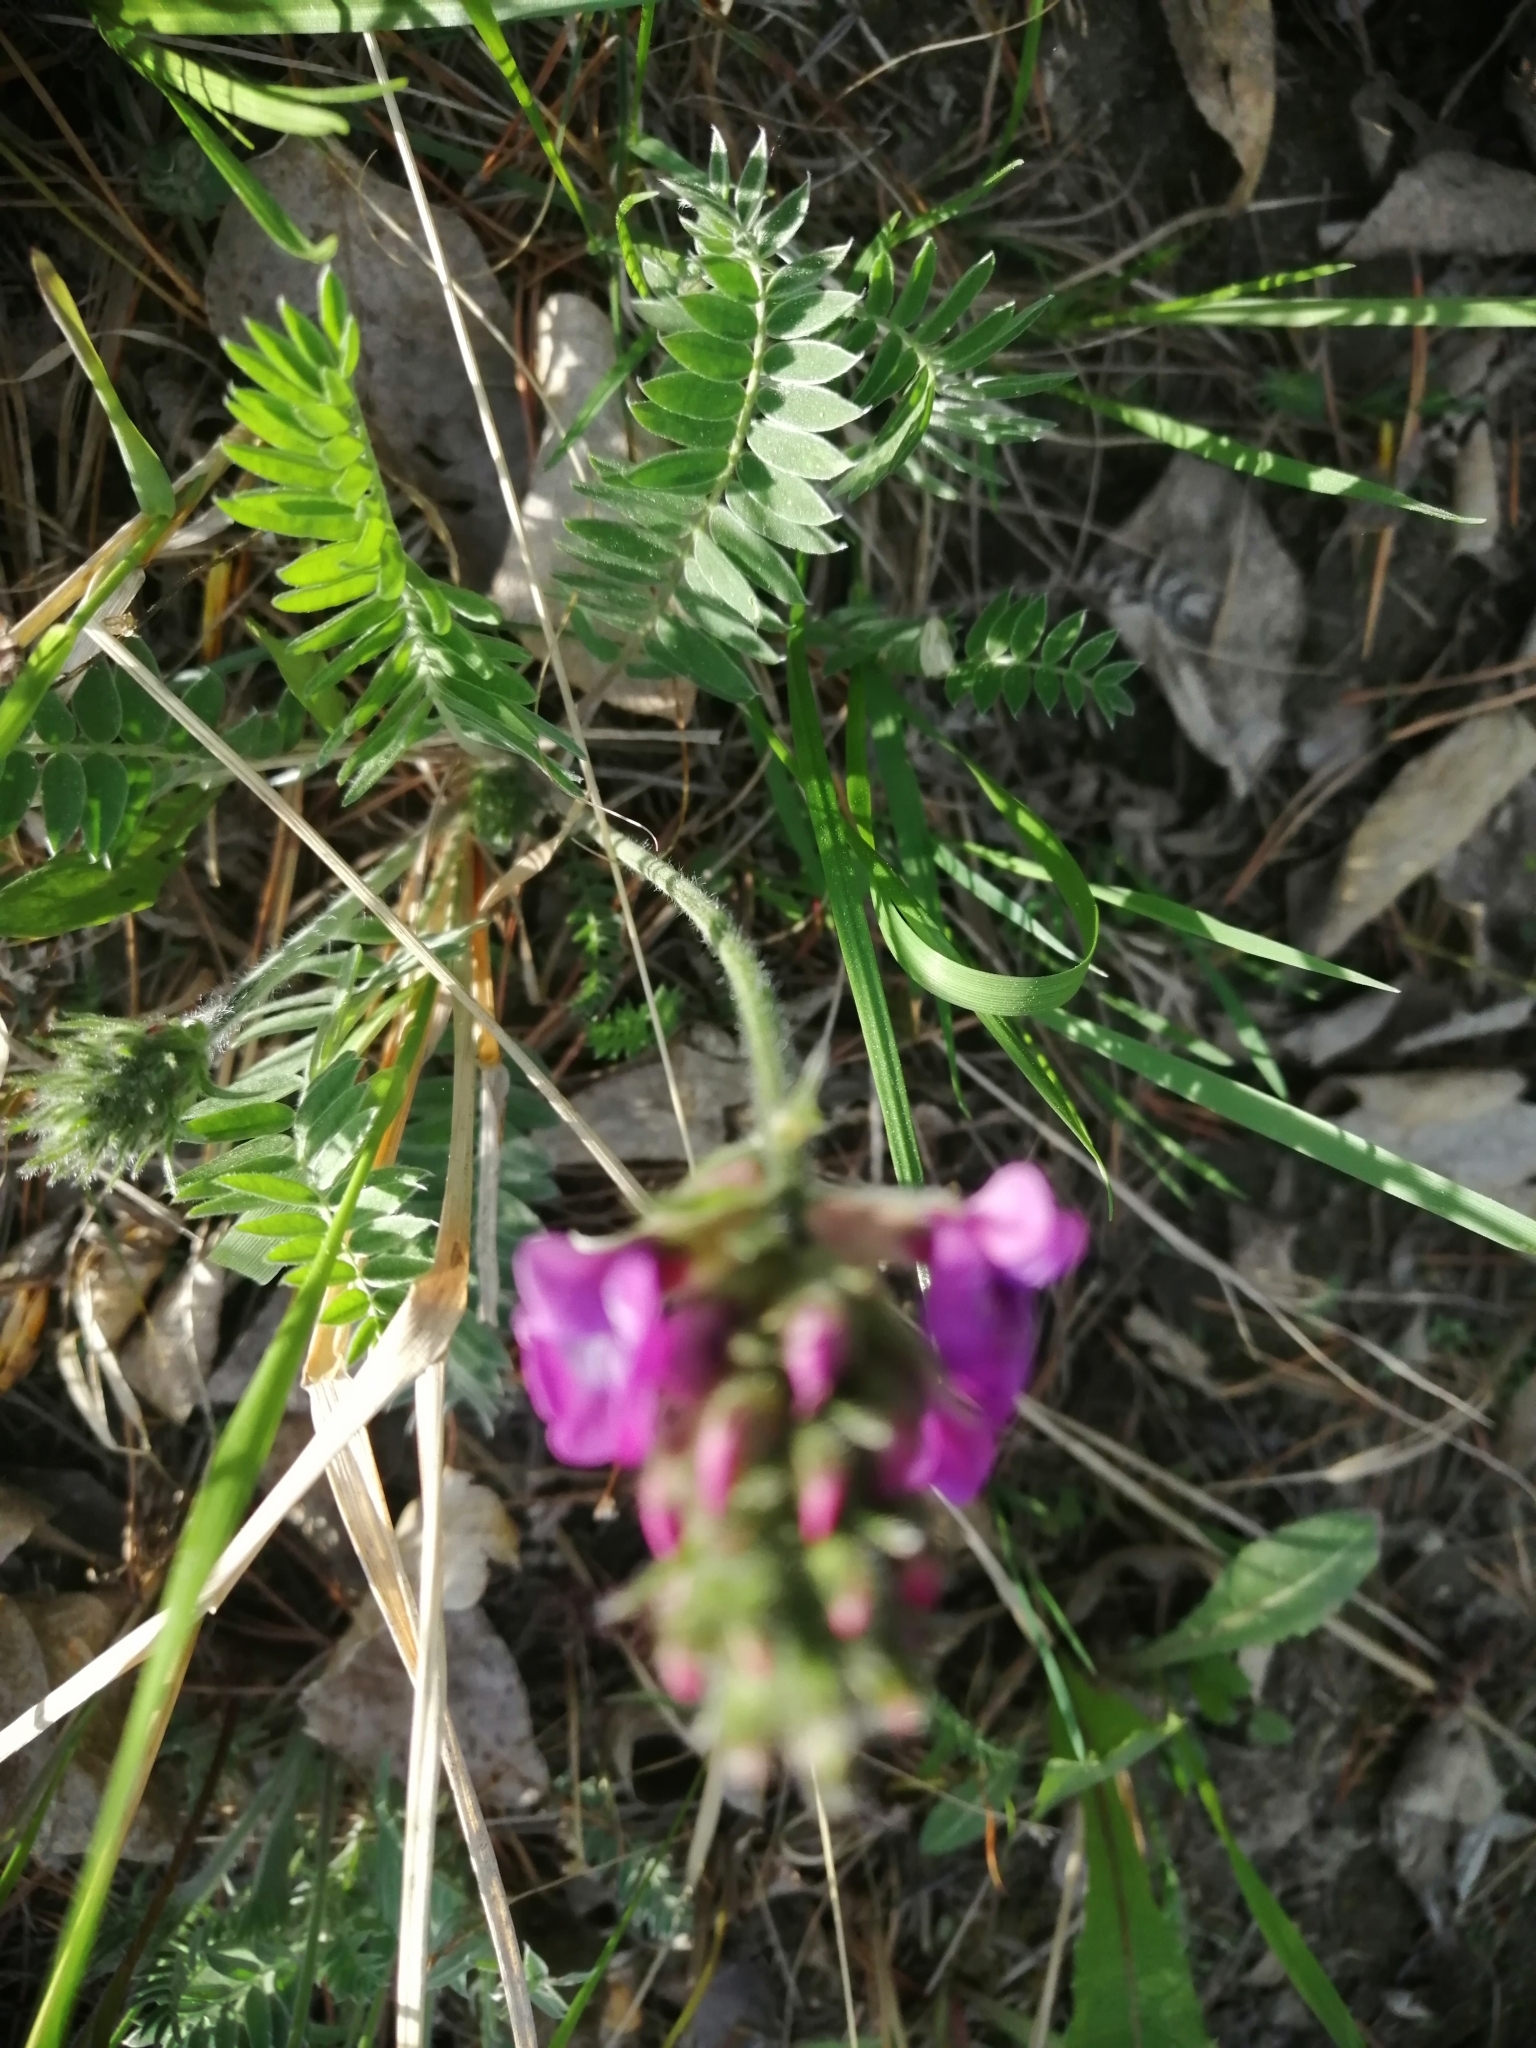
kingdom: Plantae
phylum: Tracheophyta
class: Magnoliopsida
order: Fabales
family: Fabaceae
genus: Oxytropis
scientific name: Oxytropis strobilacea
